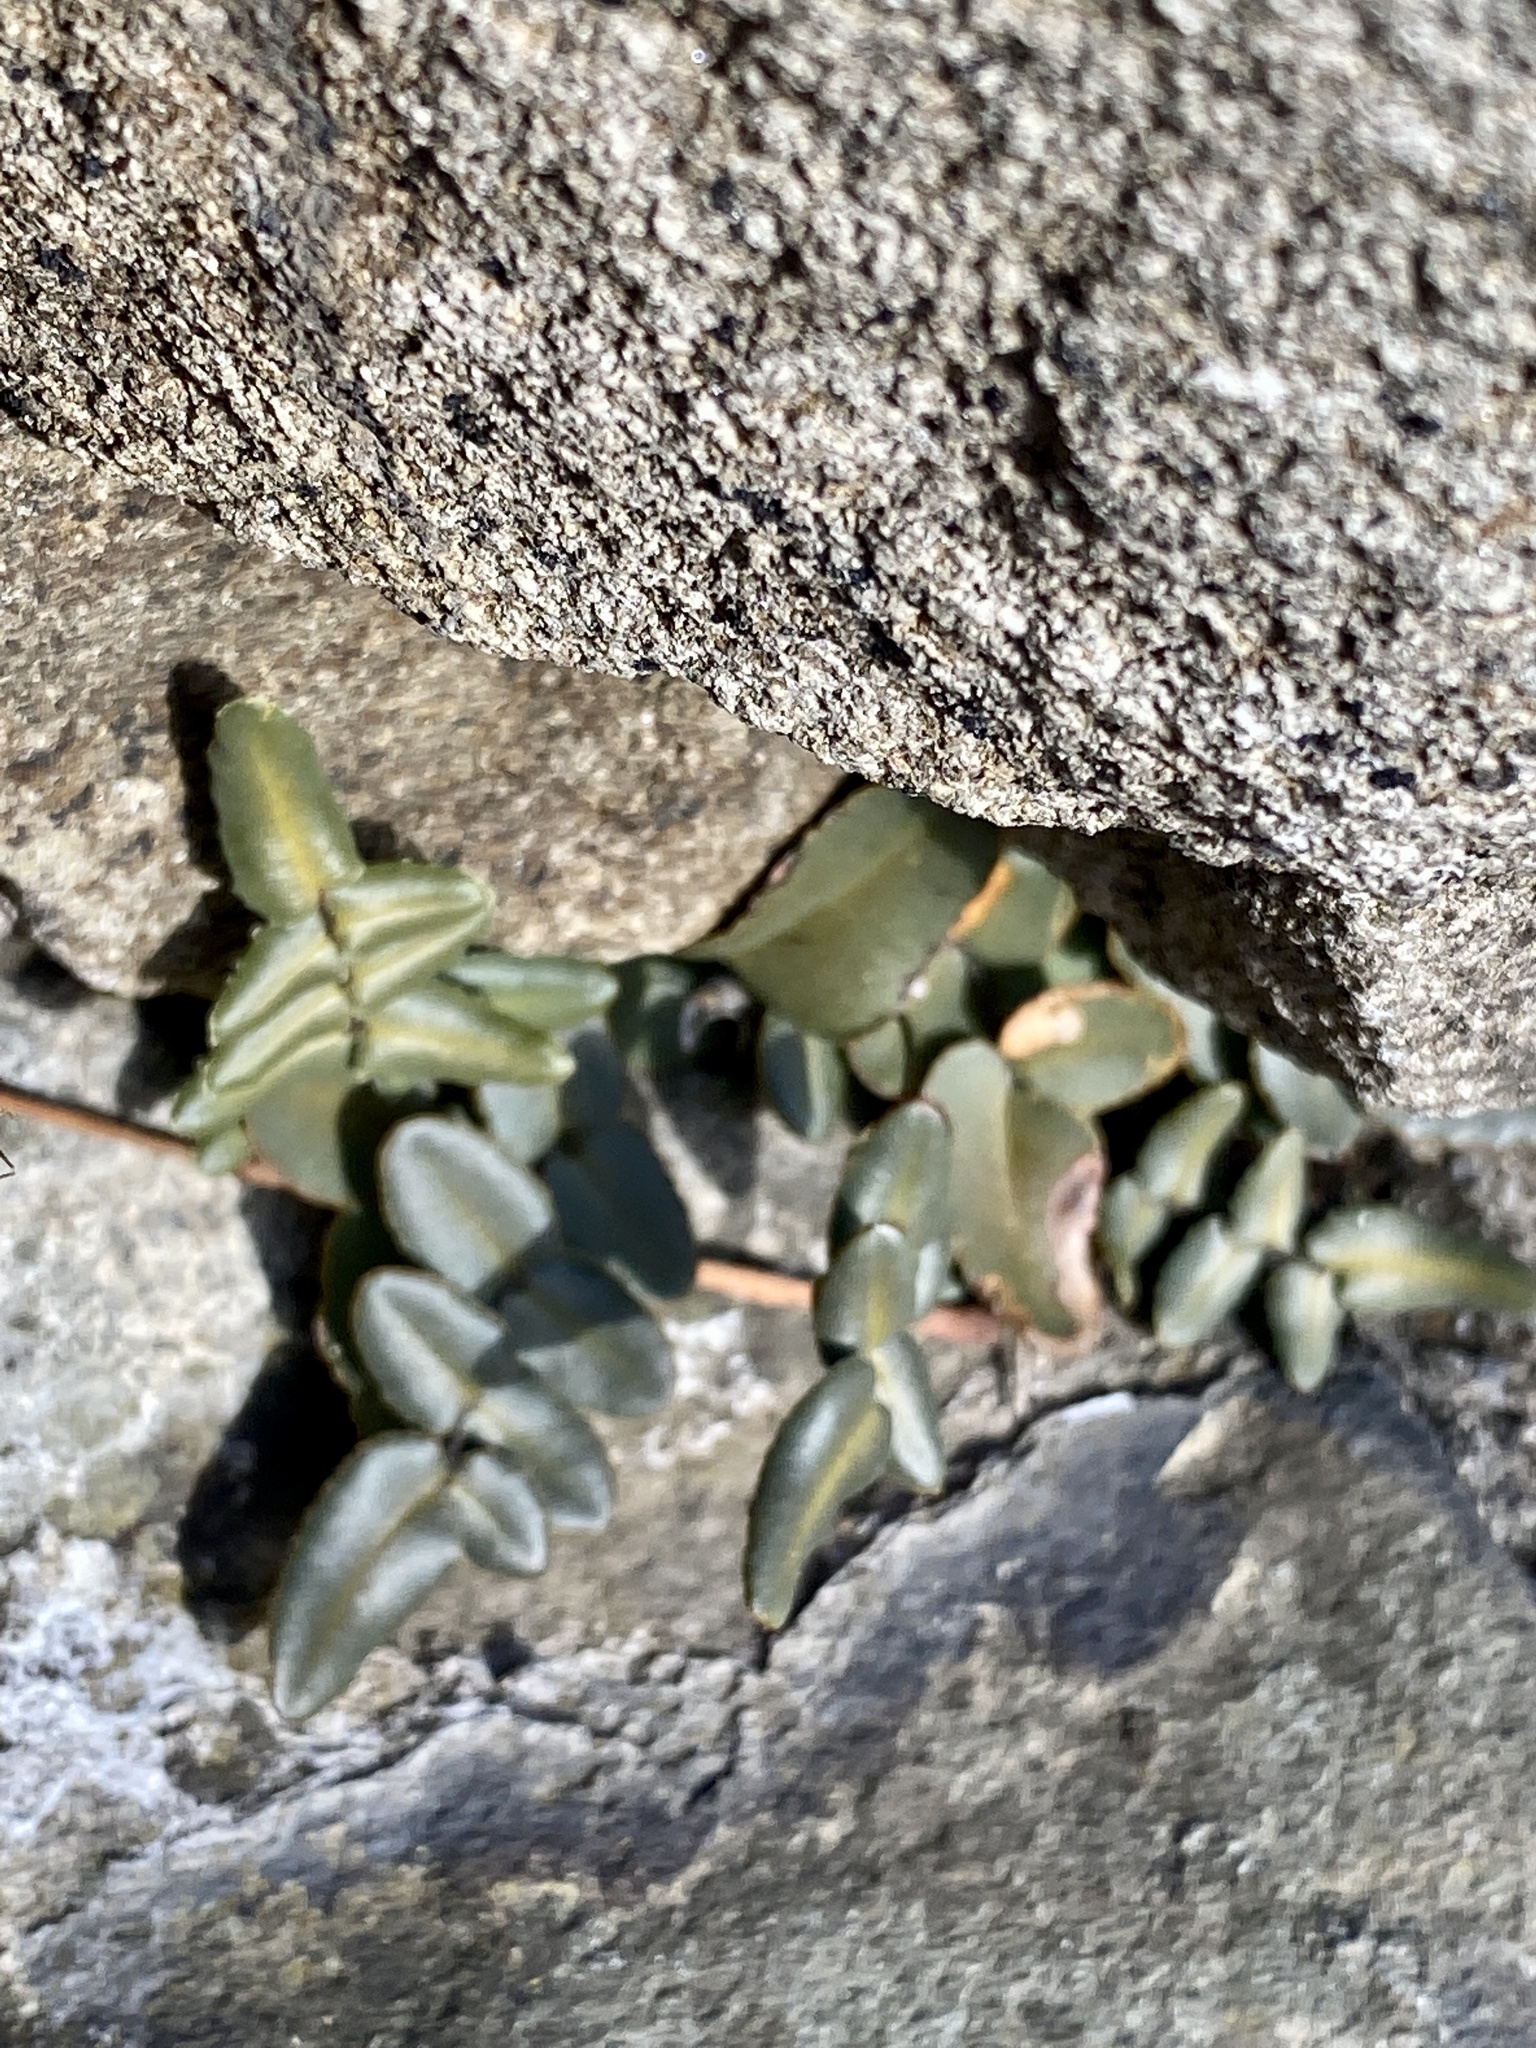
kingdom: Plantae
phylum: Tracheophyta
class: Polypodiopsida
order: Polypodiales
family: Pteridaceae
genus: Pellaea
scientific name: Pellaea atropurpurea
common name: Hairy cliffbrake
